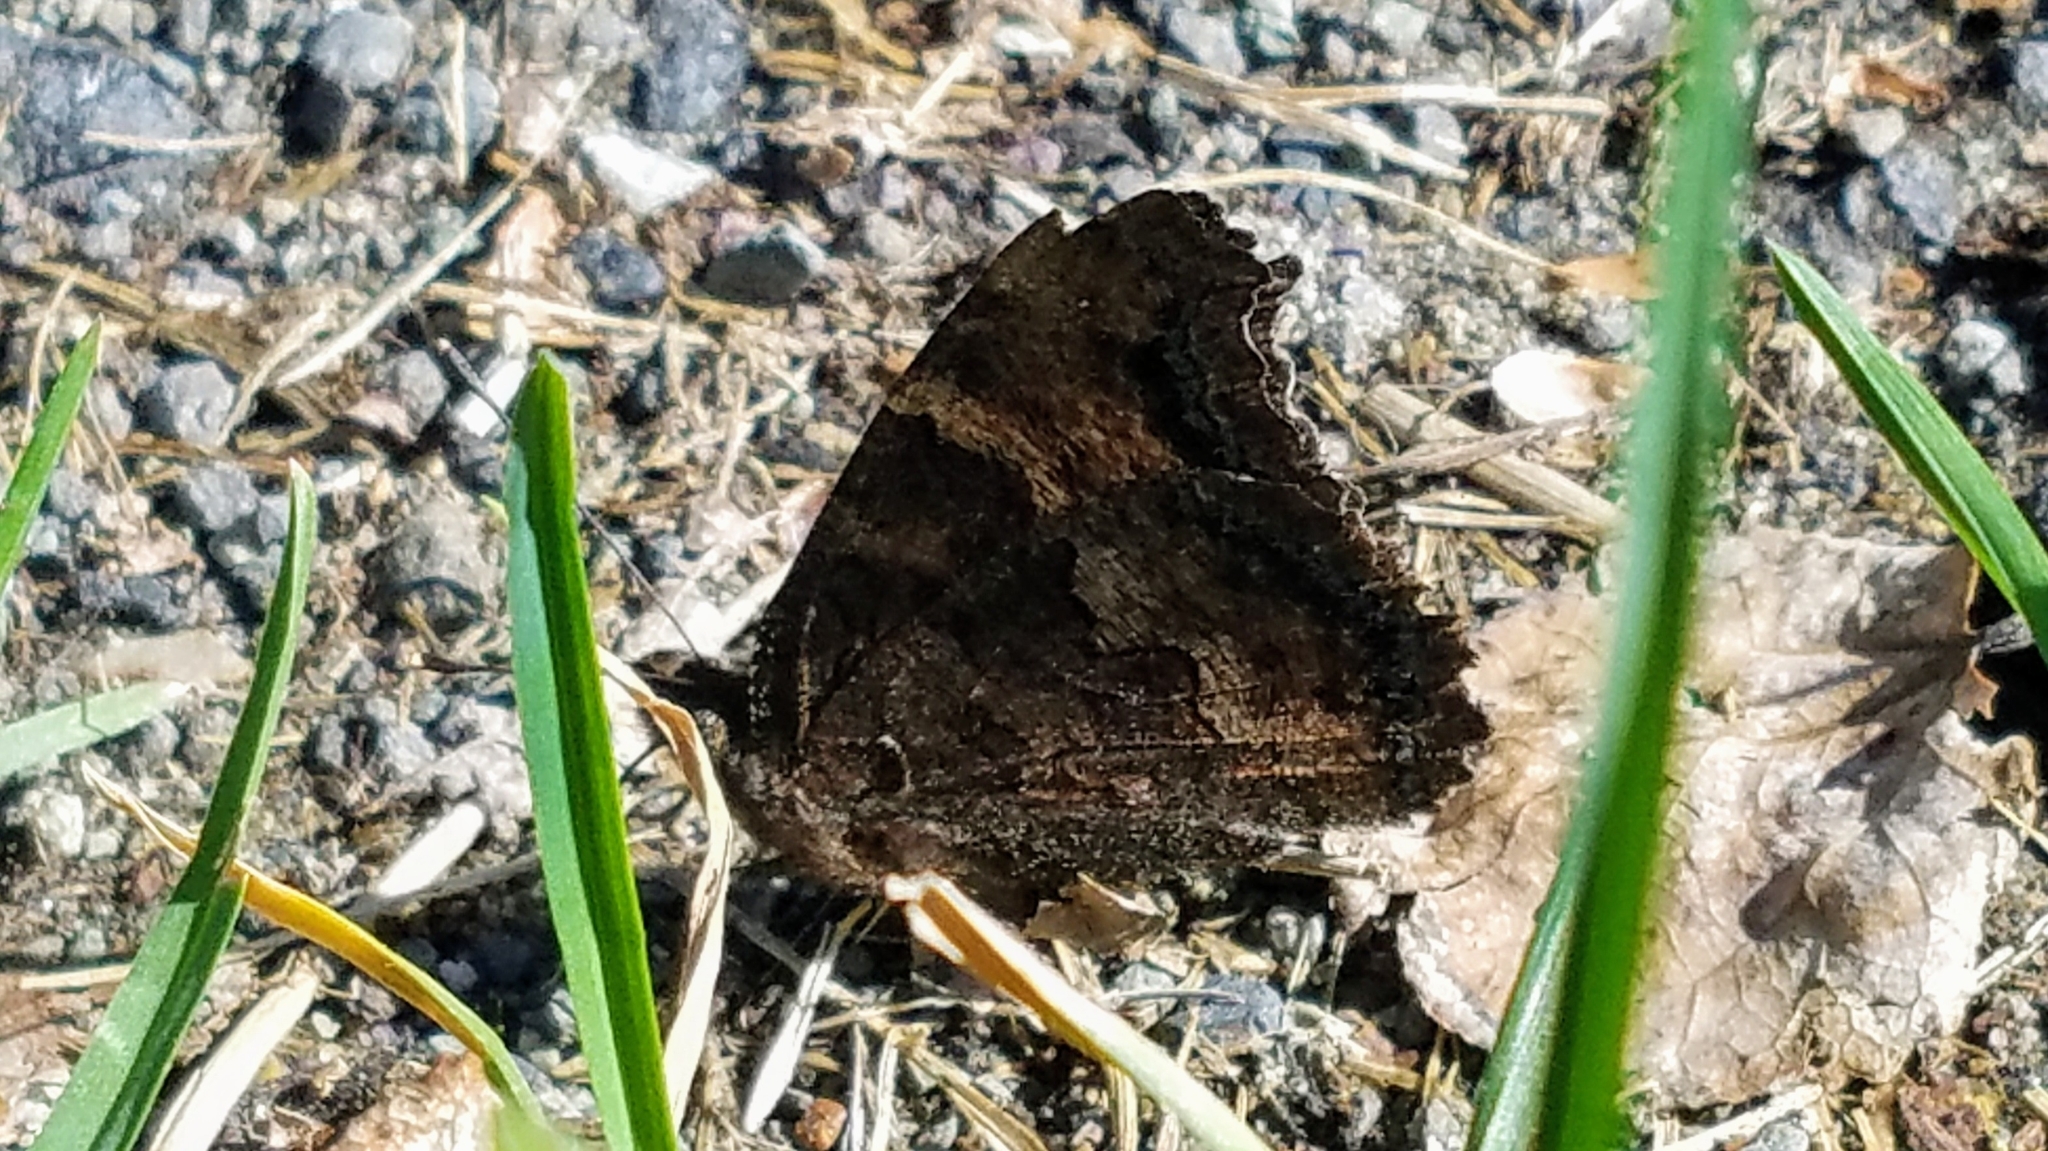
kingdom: Animalia
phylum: Arthropoda
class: Insecta
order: Lepidoptera
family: Nymphalidae
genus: Nymphalis
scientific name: Nymphalis californica
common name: California tortoiseshell
